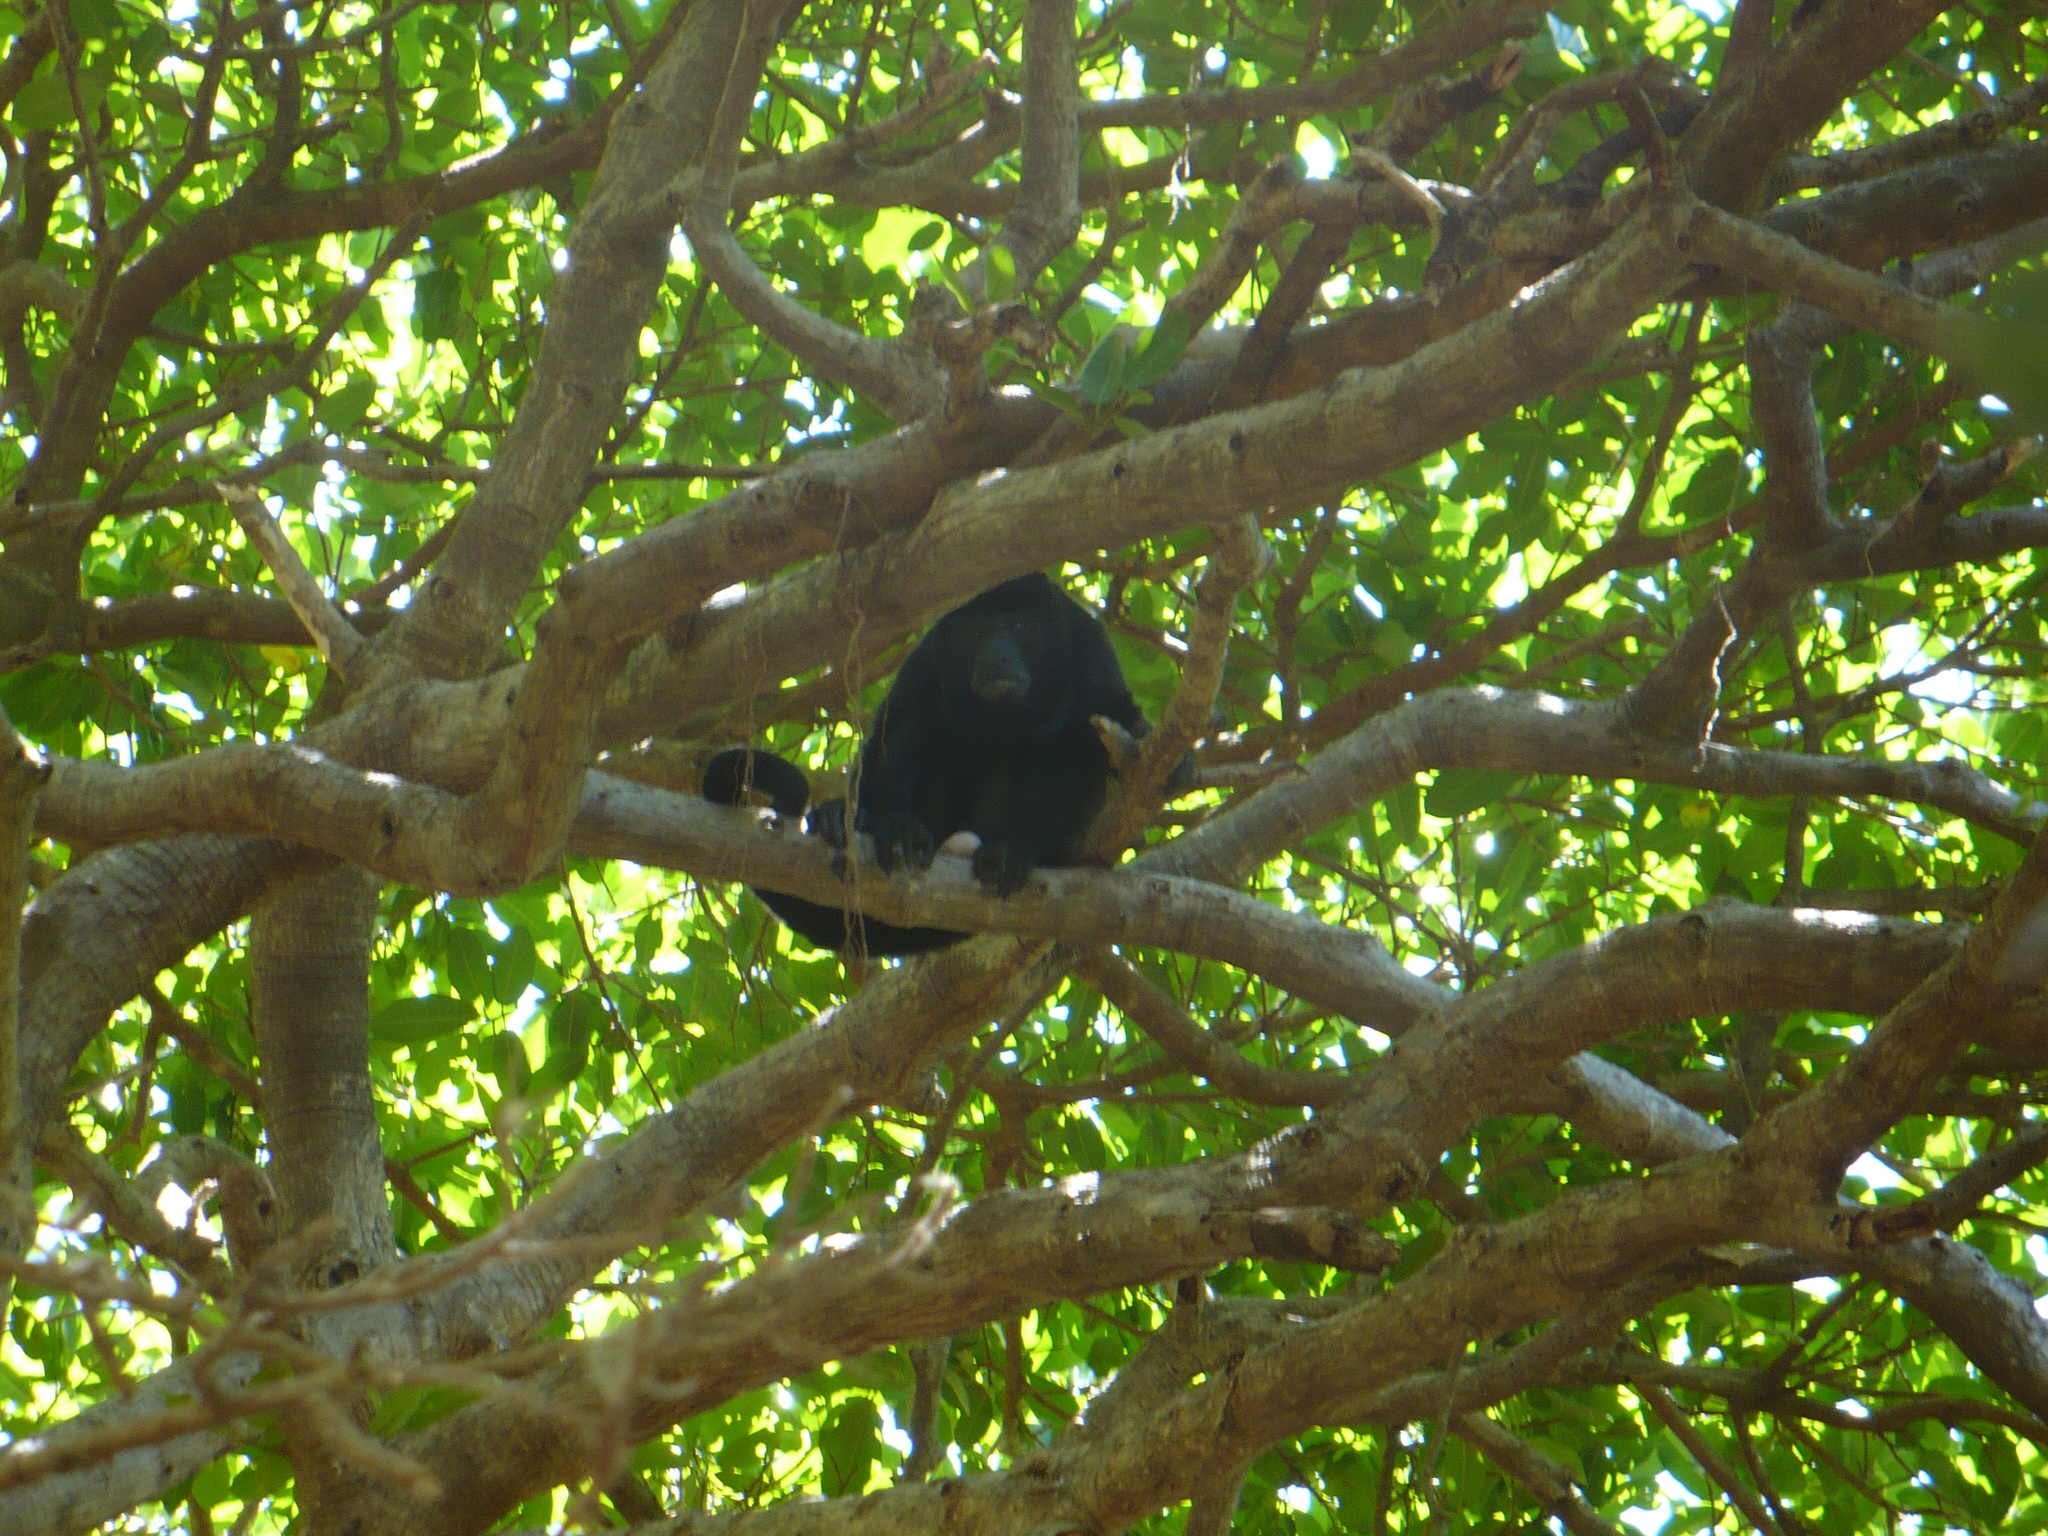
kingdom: Animalia
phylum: Chordata
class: Mammalia
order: Primates
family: Atelidae
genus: Alouatta
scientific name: Alouatta palliata
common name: Mantled howler
